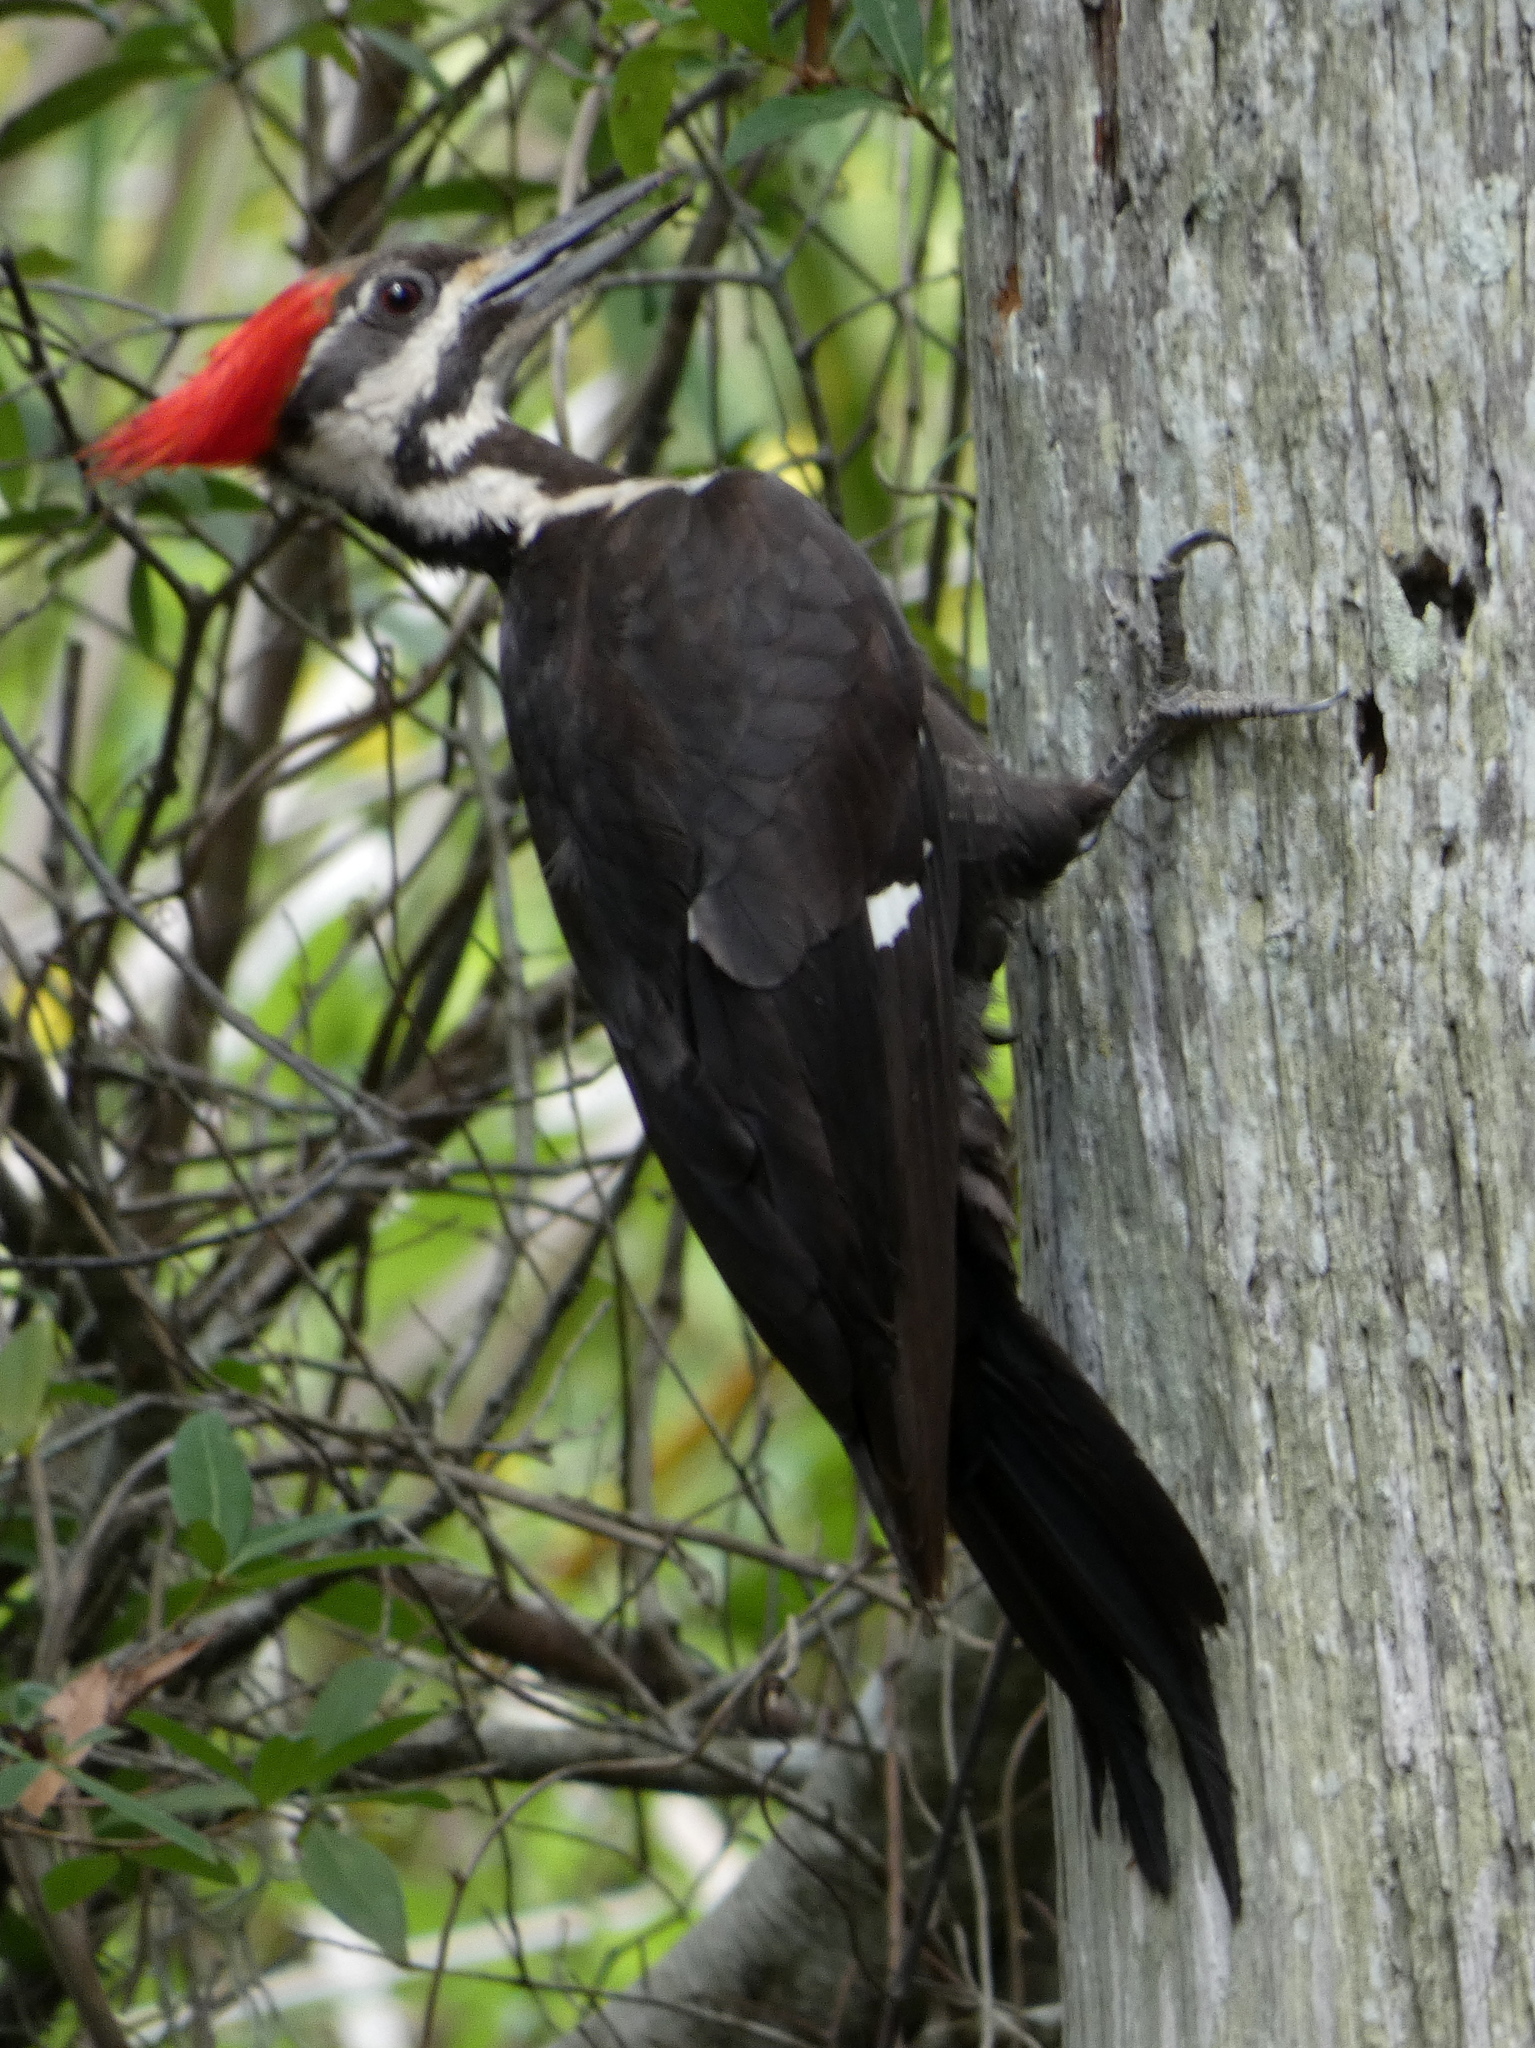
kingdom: Animalia
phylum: Chordata
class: Aves
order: Piciformes
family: Picidae
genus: Dryocopus
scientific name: Dryocopus pileatus
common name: Pileated woodpecker
